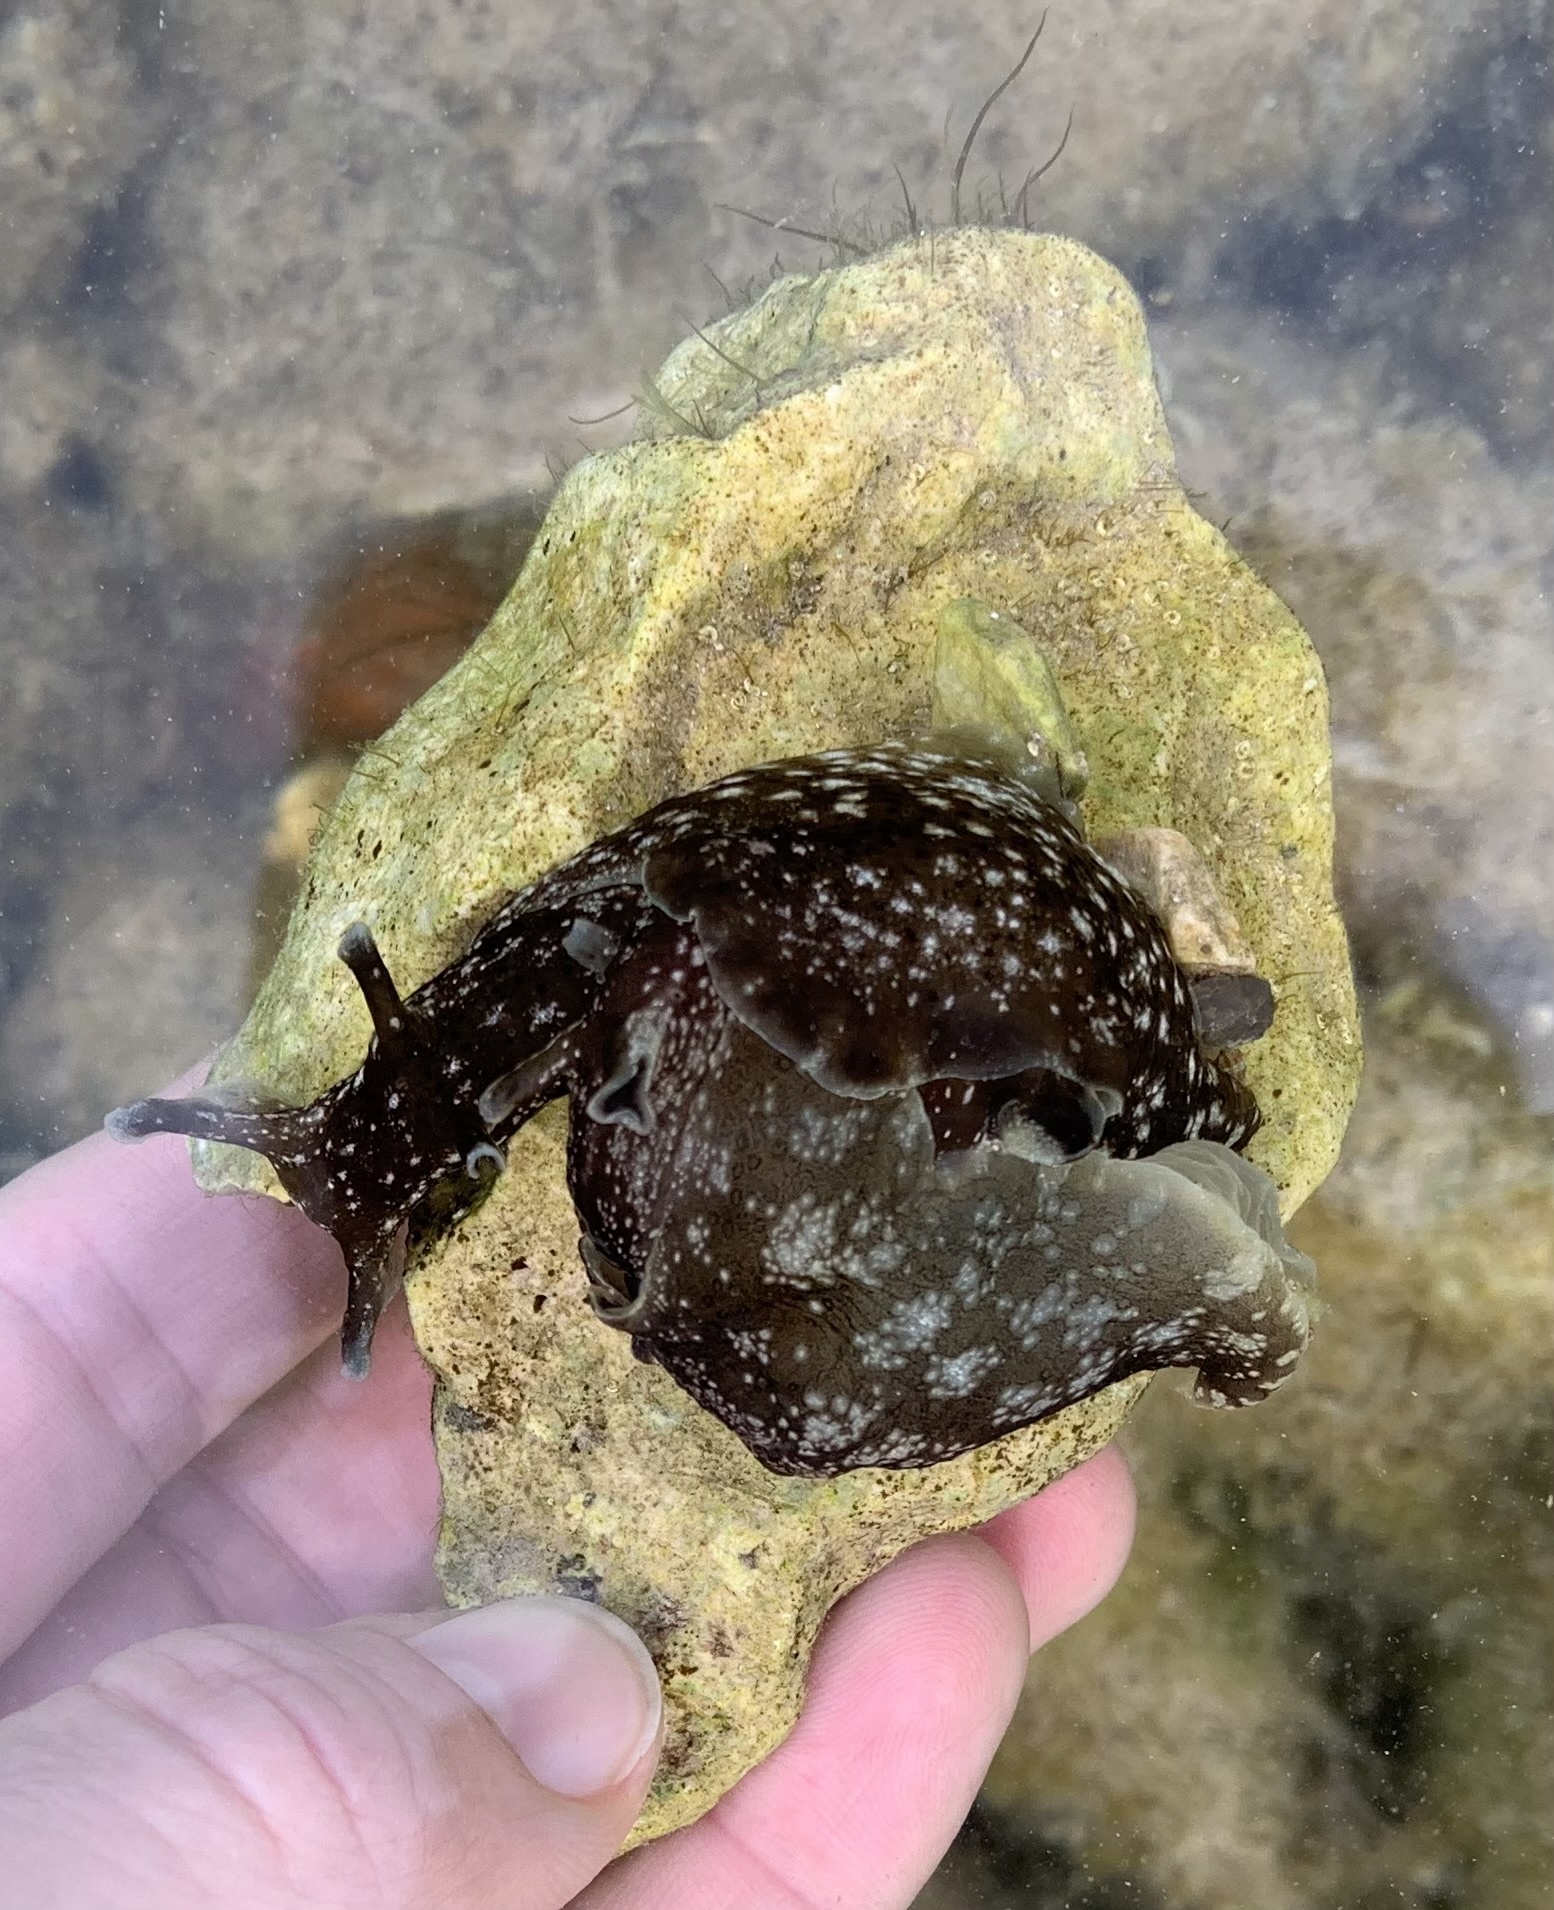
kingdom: Animalia
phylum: Mollusca
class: Gastropoda
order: Aplysiida
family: Aplysiidae
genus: Aplysia
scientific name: Aplysia punctata
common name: Common sea hare
